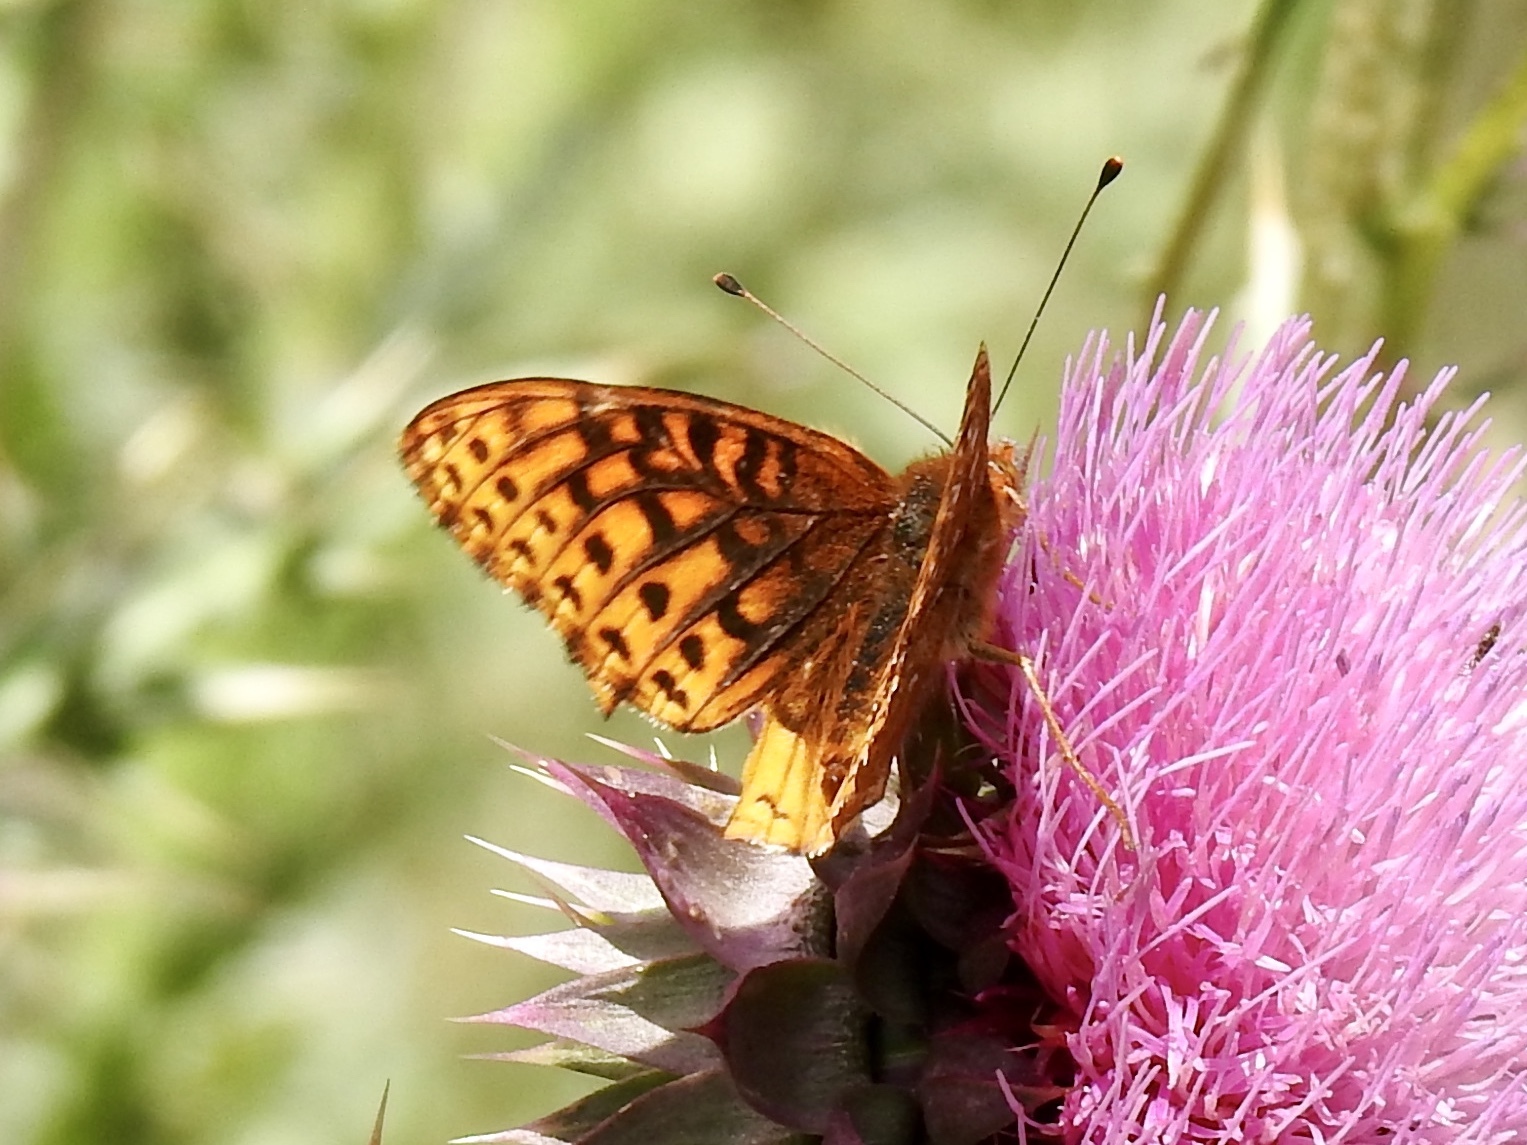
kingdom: Animalia
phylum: Arthropoda
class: Insecta
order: Lepidoptera
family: Nymphalidae
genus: Speyeria
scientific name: Speyeria atlantis
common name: Atlantis fritillary
